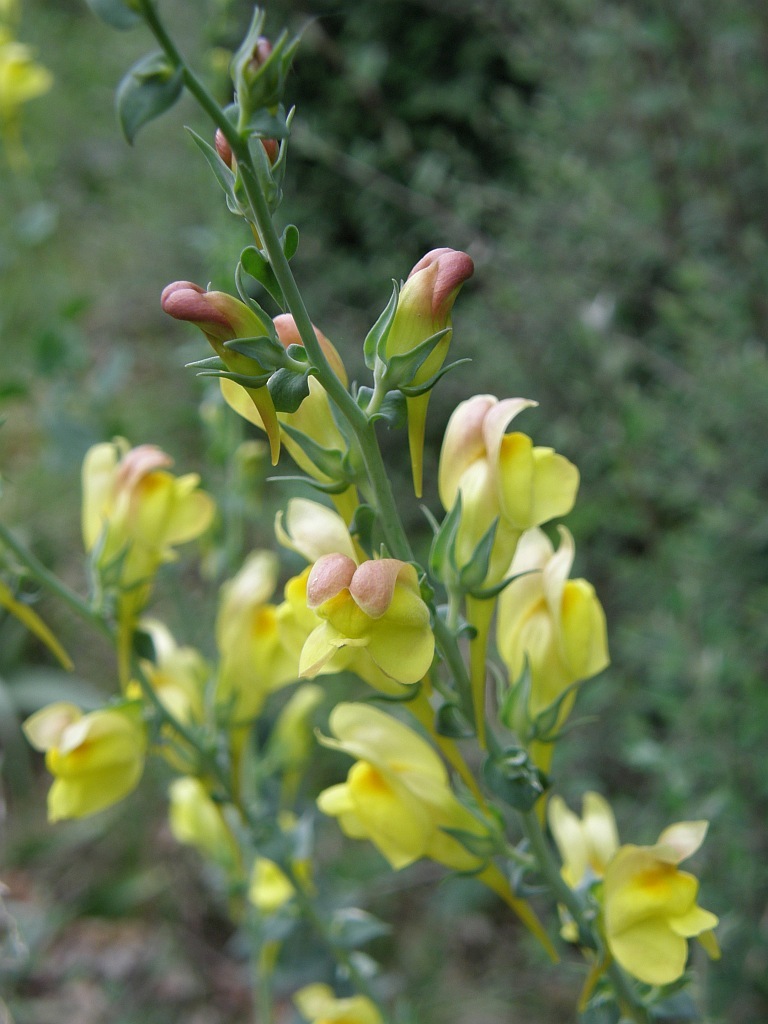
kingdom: Plantae
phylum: Tracheophyta
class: Magnoliopsida
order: Lamiales
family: Plantaginaceae
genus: Linaria
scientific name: Linaria dalmatica
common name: Dalmatian toadflax
